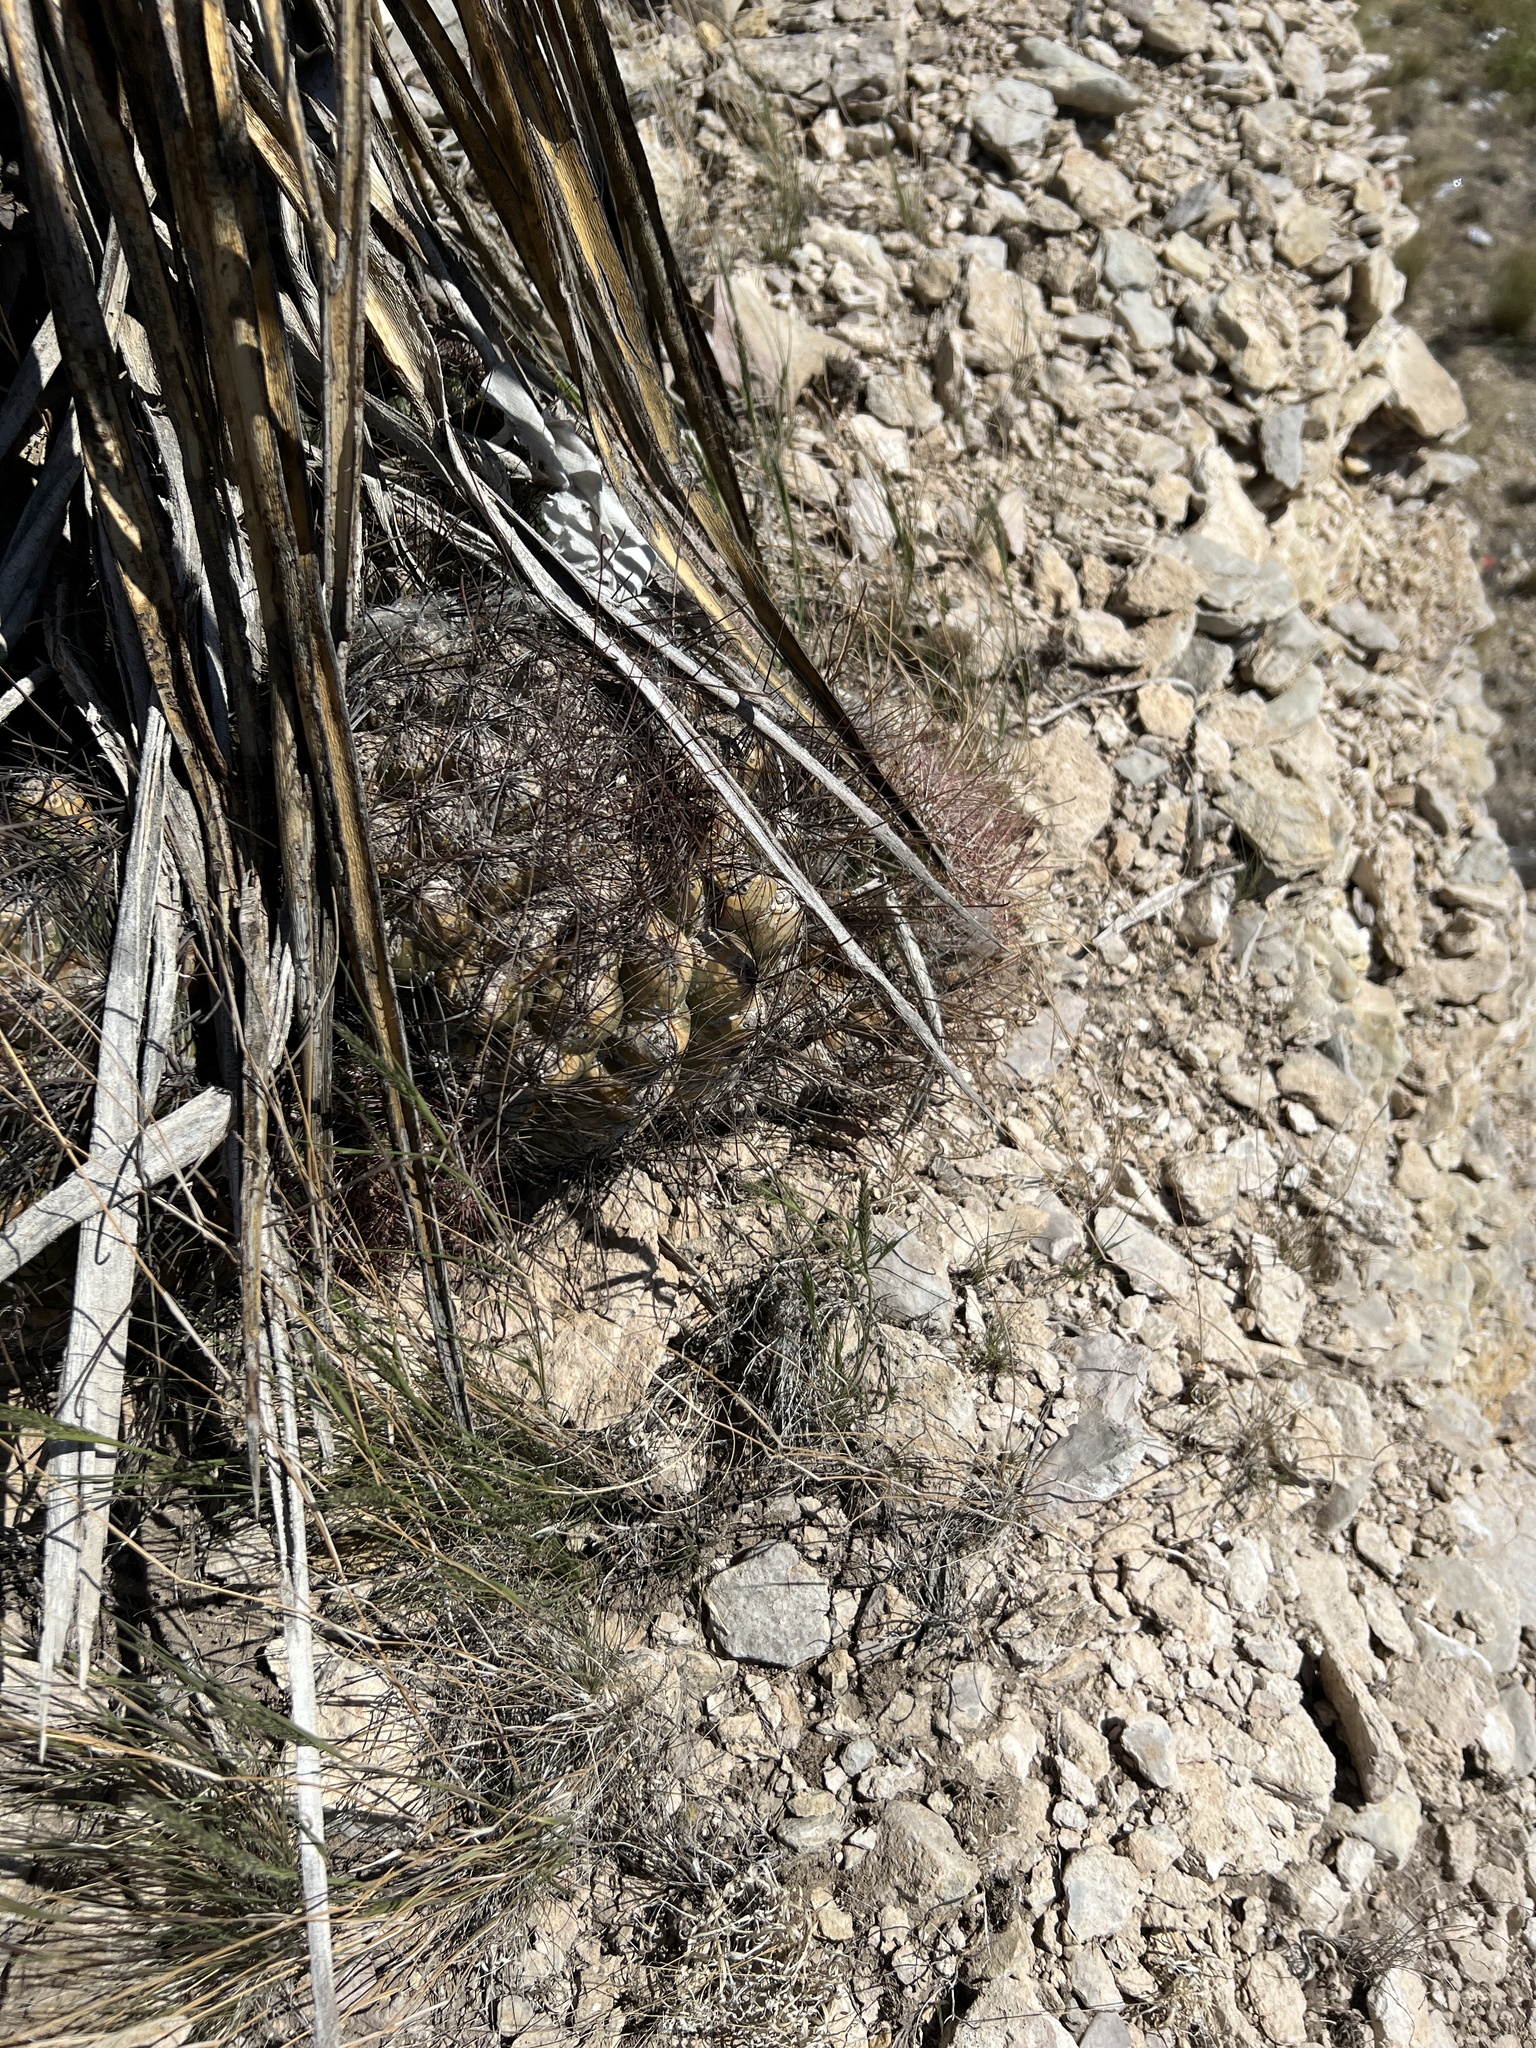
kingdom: Plantae
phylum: Tracheophyta
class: Magnoliopsida
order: Caryophyllales
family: Cactaceae
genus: Bisnaga
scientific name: Bisnaga hamatacantha
